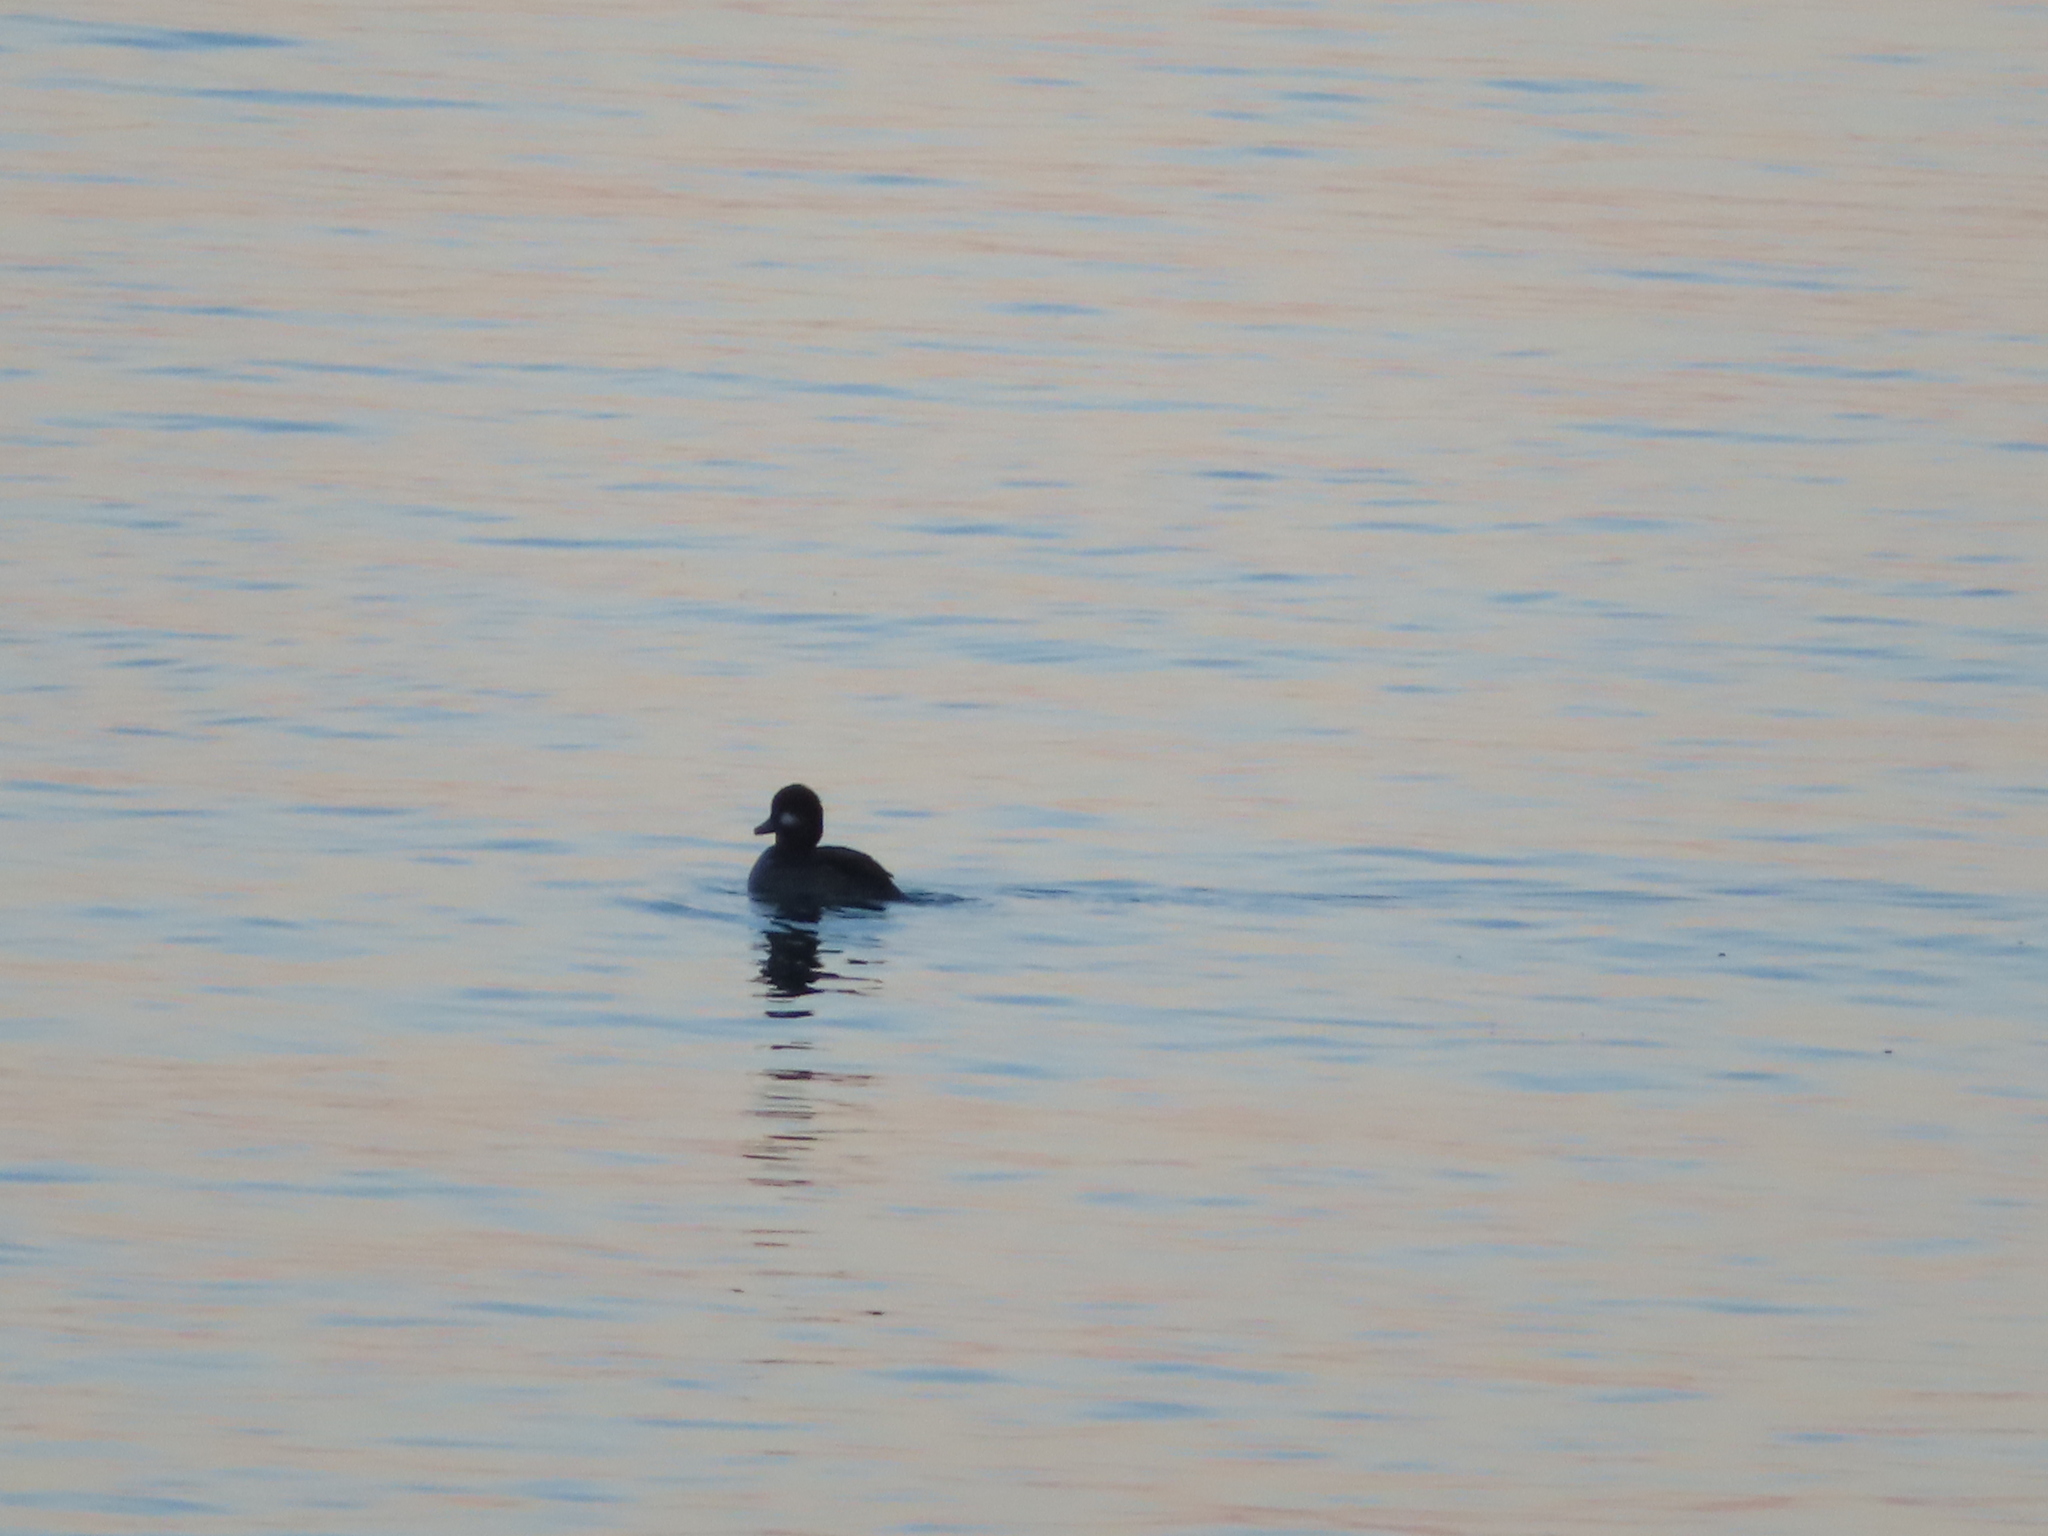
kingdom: Animalia
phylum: Chordata
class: Aves
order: Anseriformes
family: Anatidae
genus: Bucephala
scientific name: Bucephala albeola
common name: Bufflehead
